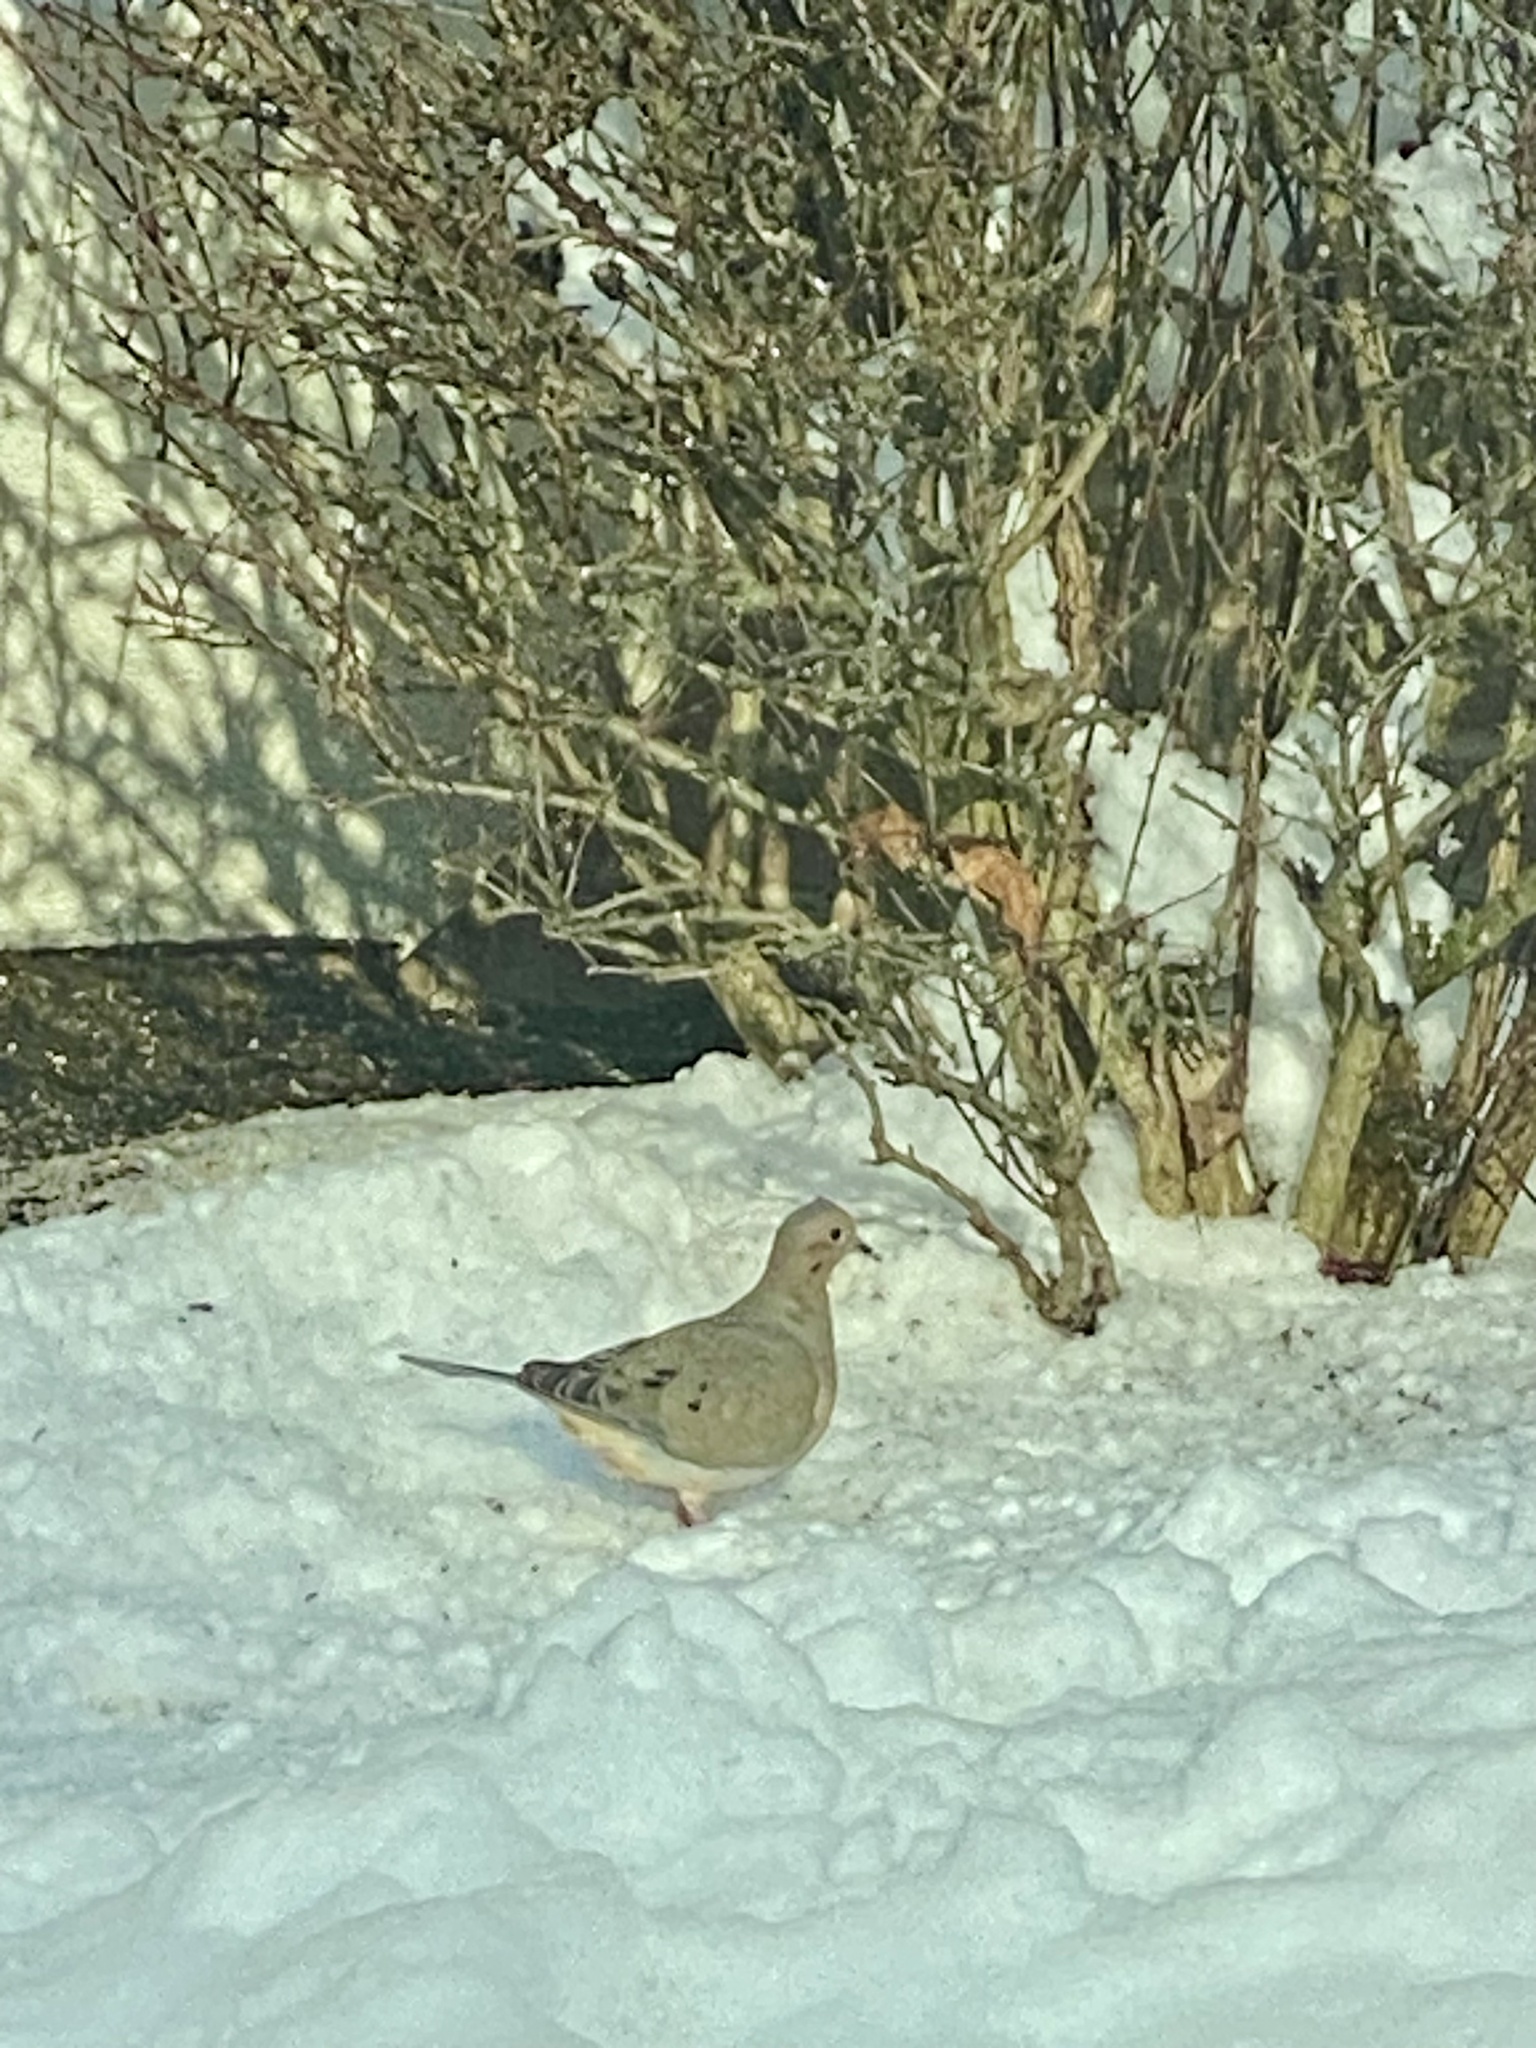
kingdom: Animalia
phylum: Chordata
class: Aves
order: Columbiformes
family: Columbidae
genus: Zenaida
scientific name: Zenaida macroura
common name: Mourning dove
